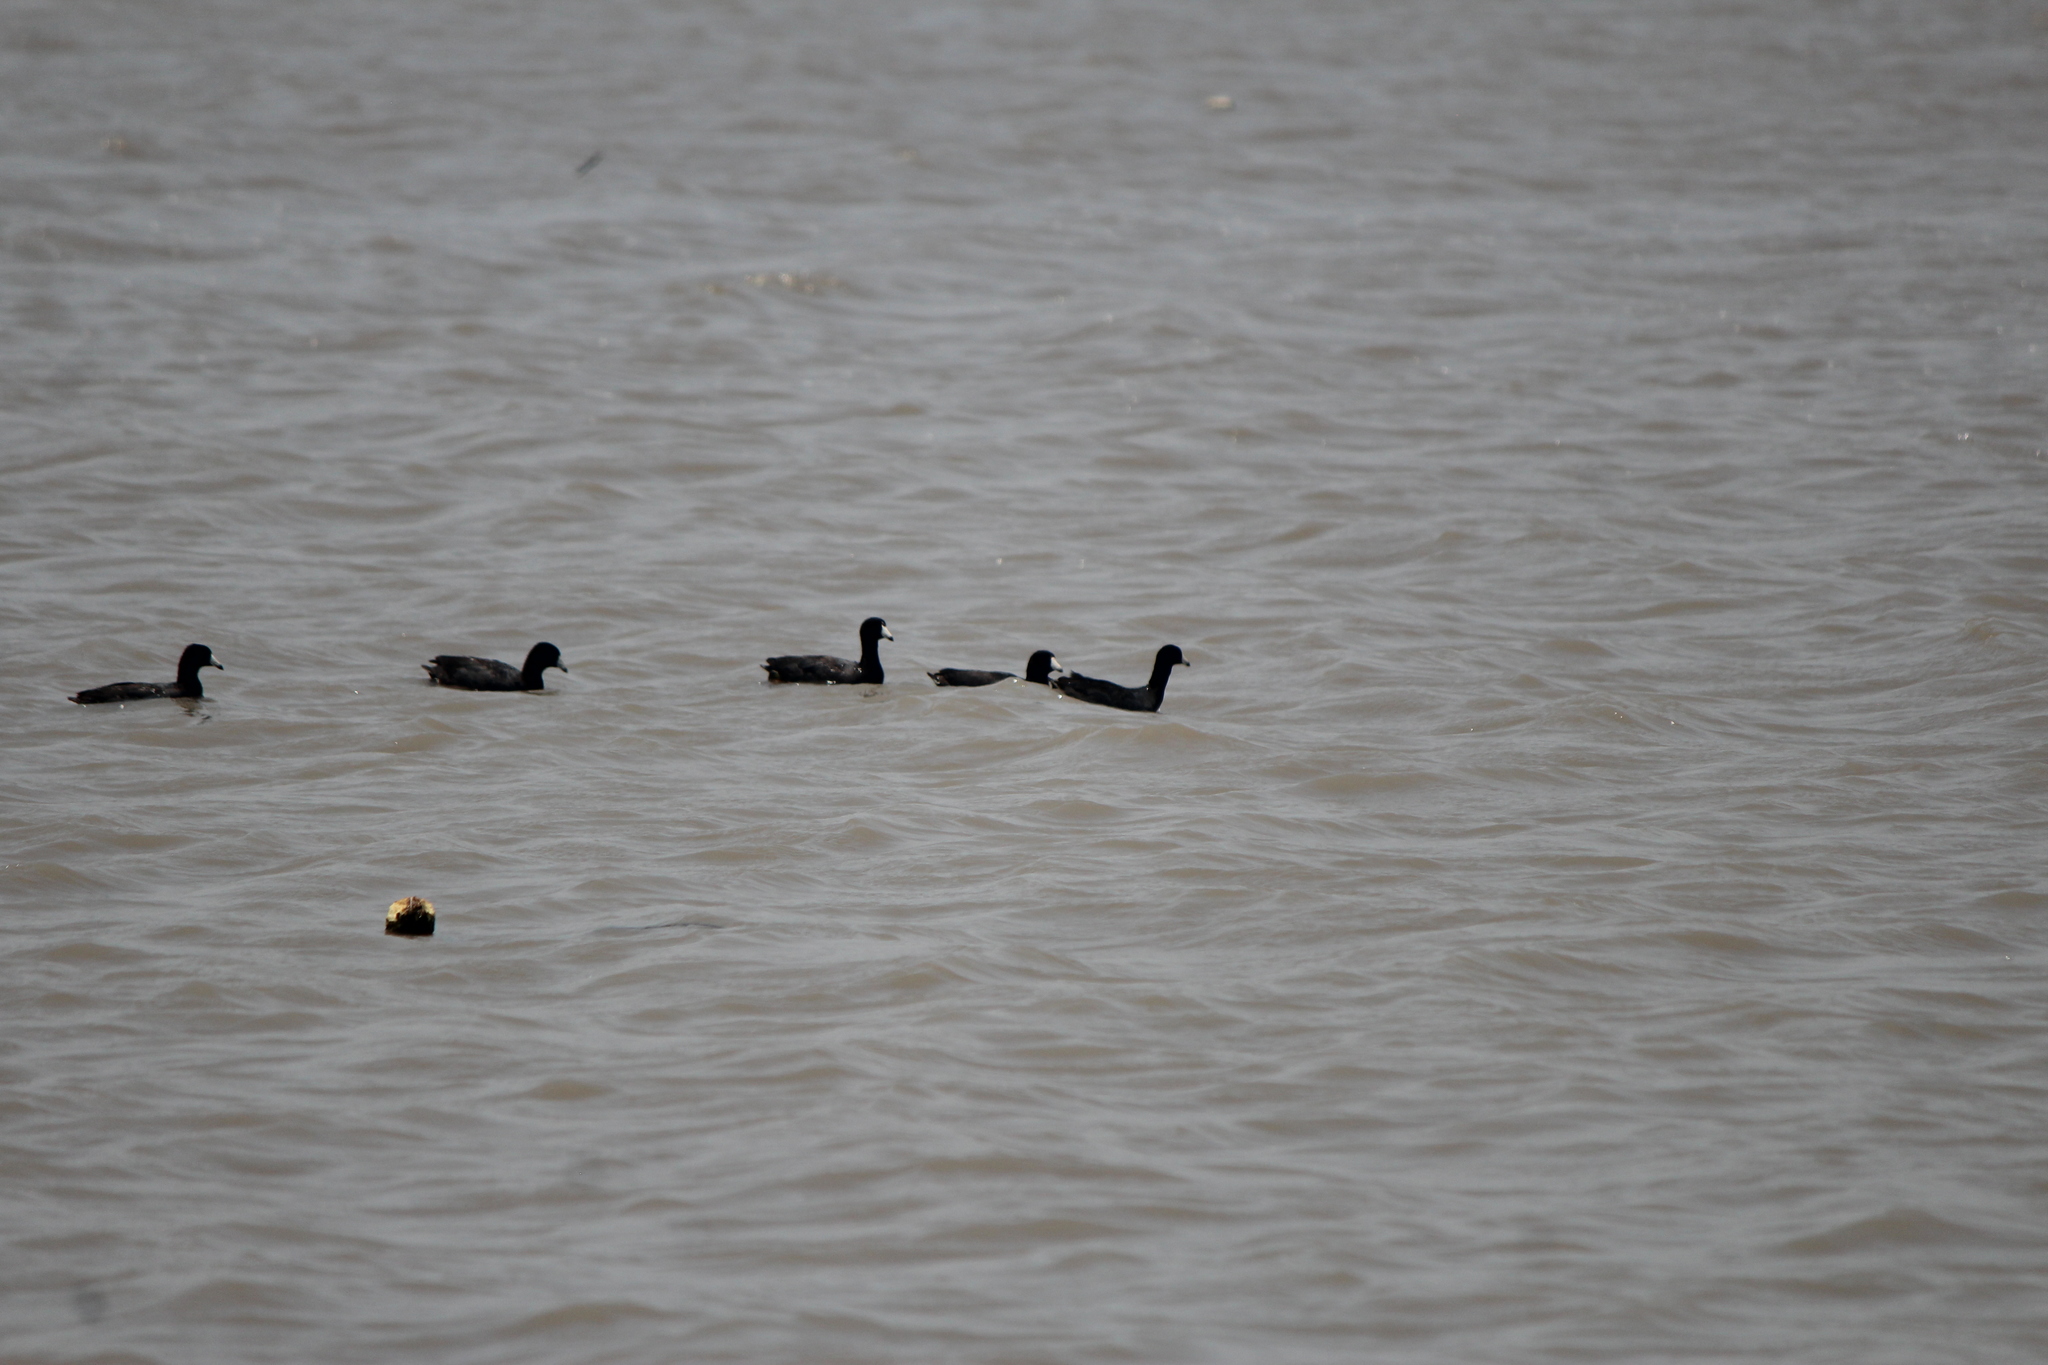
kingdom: Animalia
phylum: Chordata
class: Aves
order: Gruiformes
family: Rallidae
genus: Fulica
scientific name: Fulica americana
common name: American coot
